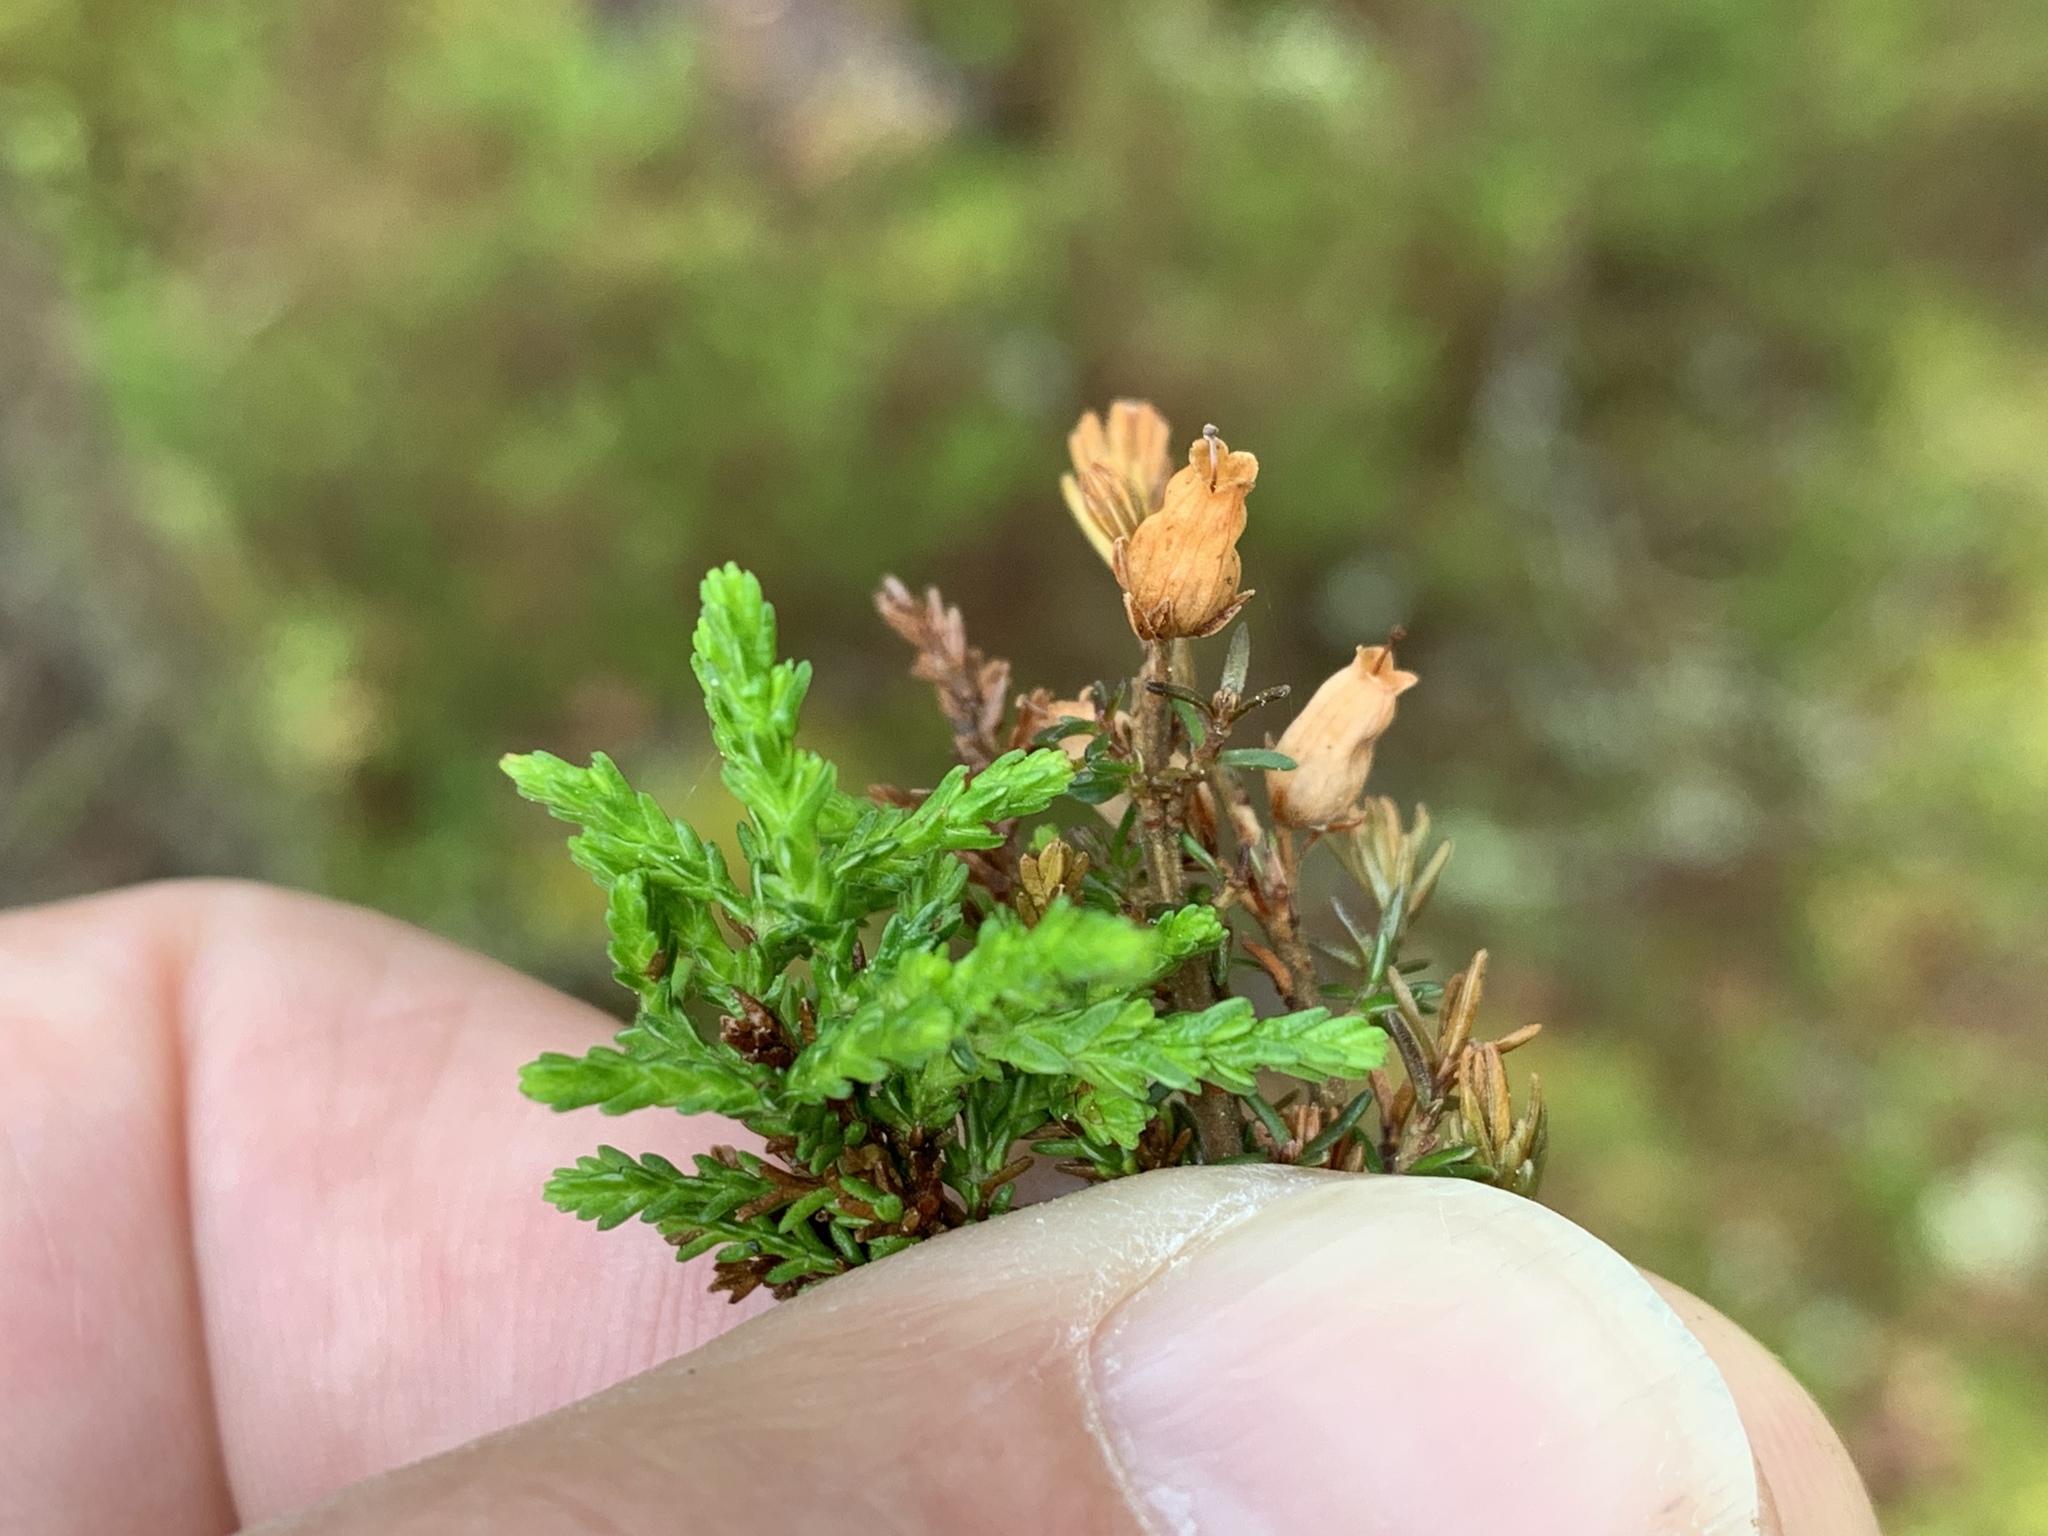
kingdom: Plantae
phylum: Tracheophyta
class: Magnoliopsida
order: Ericales
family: Ericaceae
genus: Calluna
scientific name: Calluna vulgaris
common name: Heather
